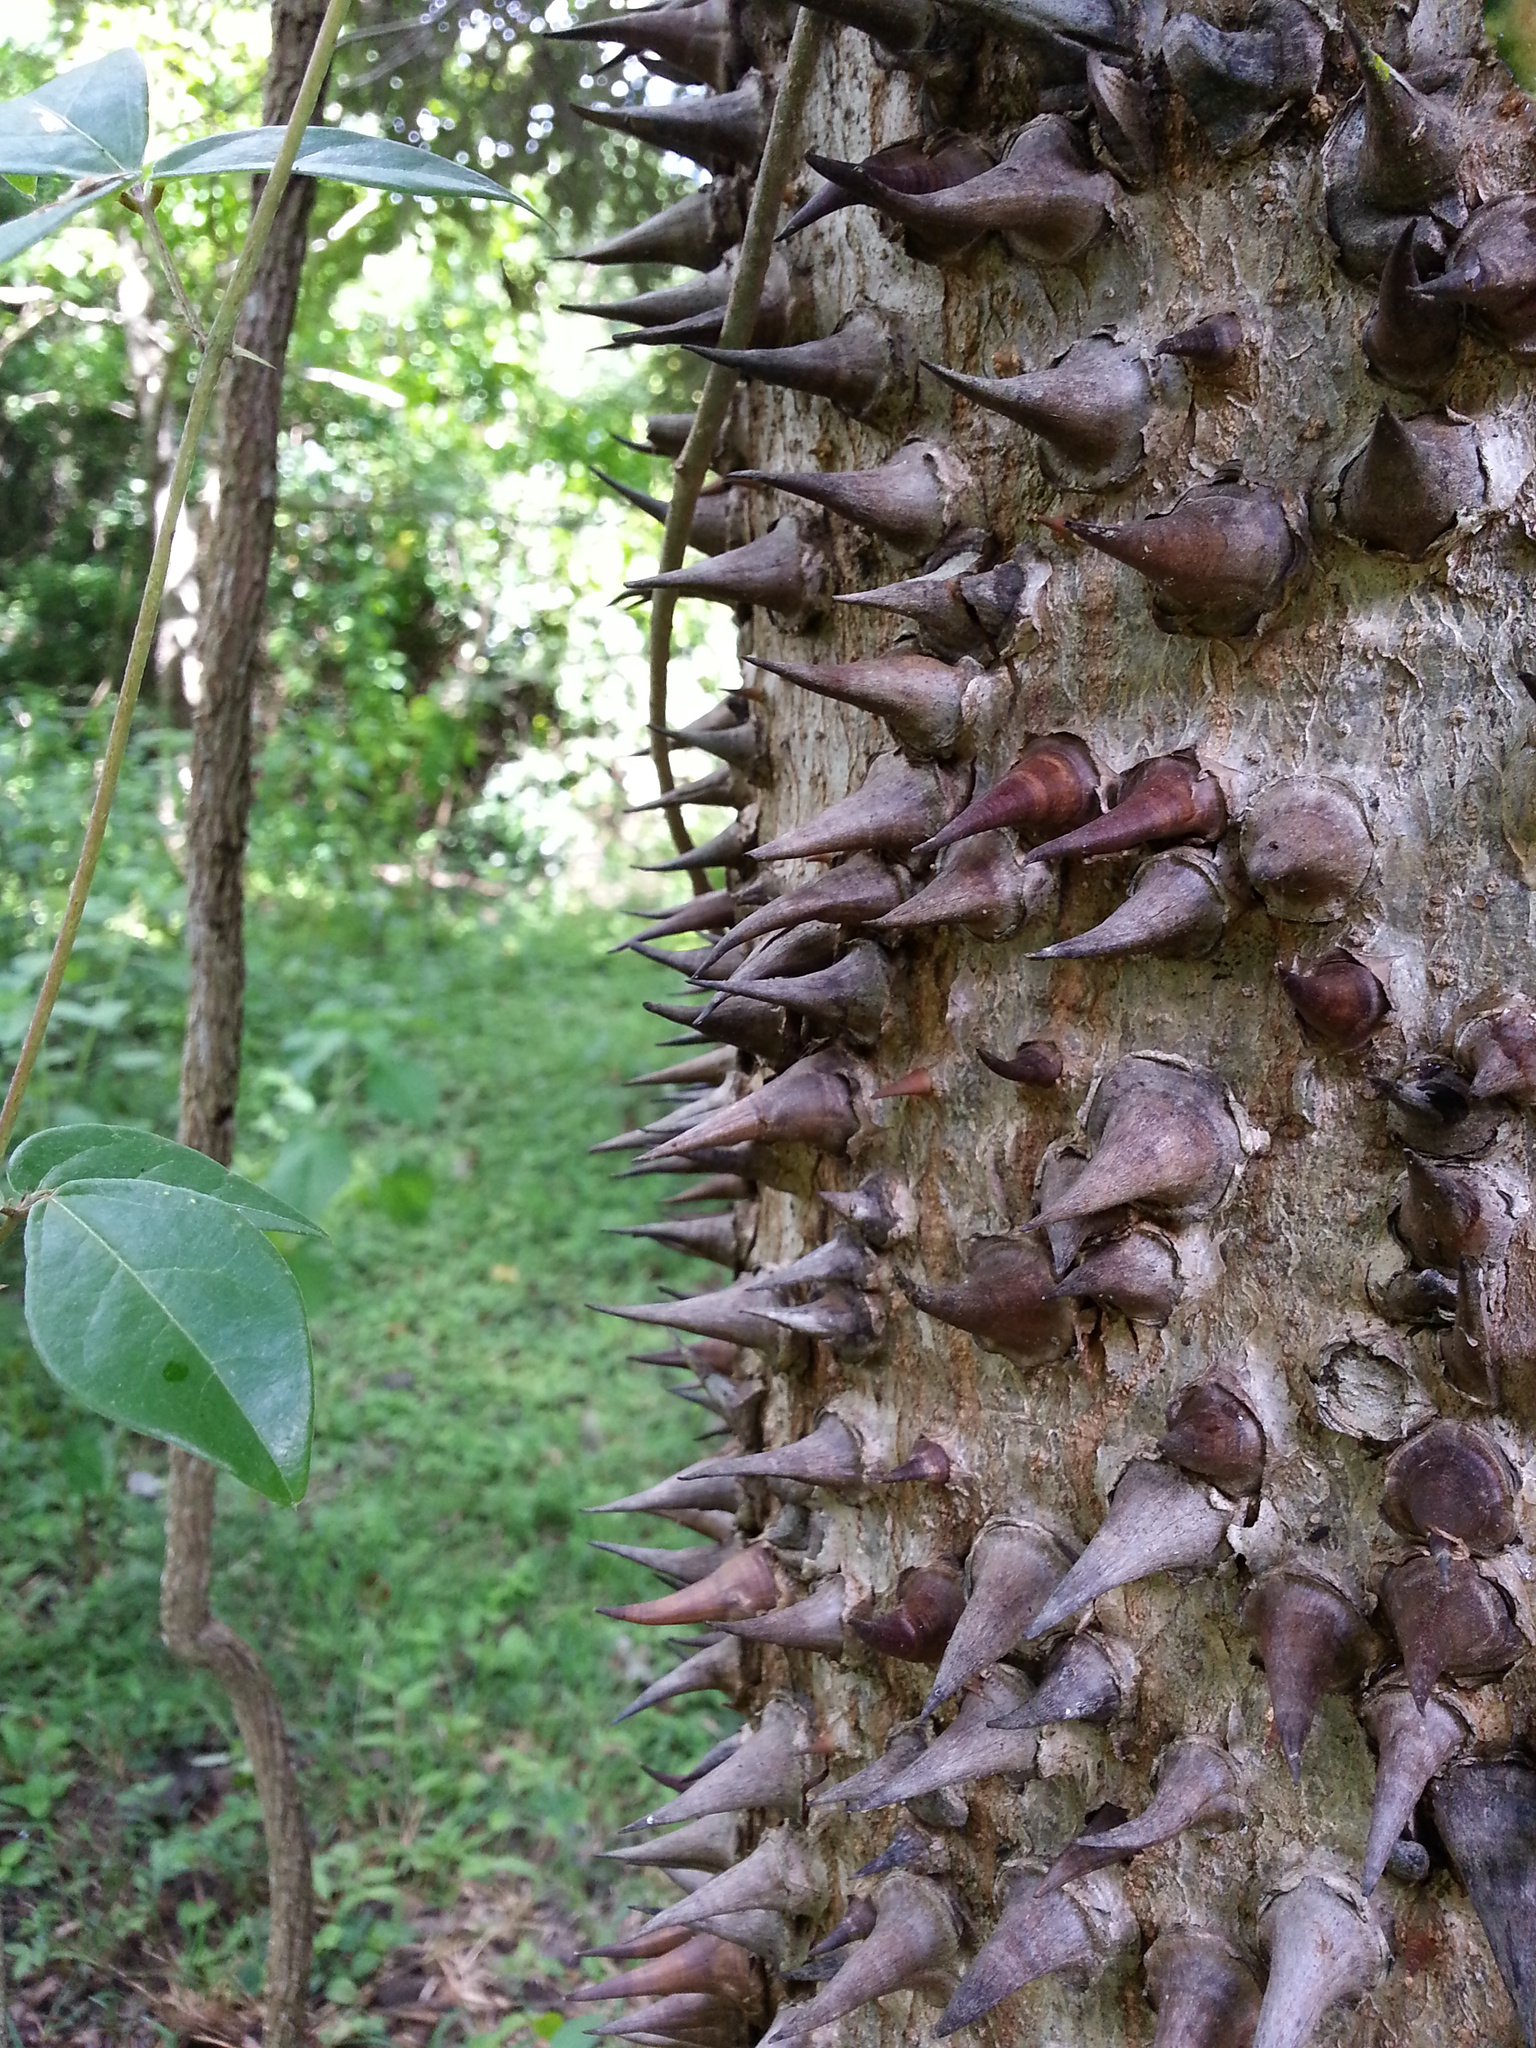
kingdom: Plantae
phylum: Tracheophyta
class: Magnoliopsida
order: Malpighiales
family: Euphorbiaceae
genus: Hura
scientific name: Hura crepitans
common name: Sandboxtree
